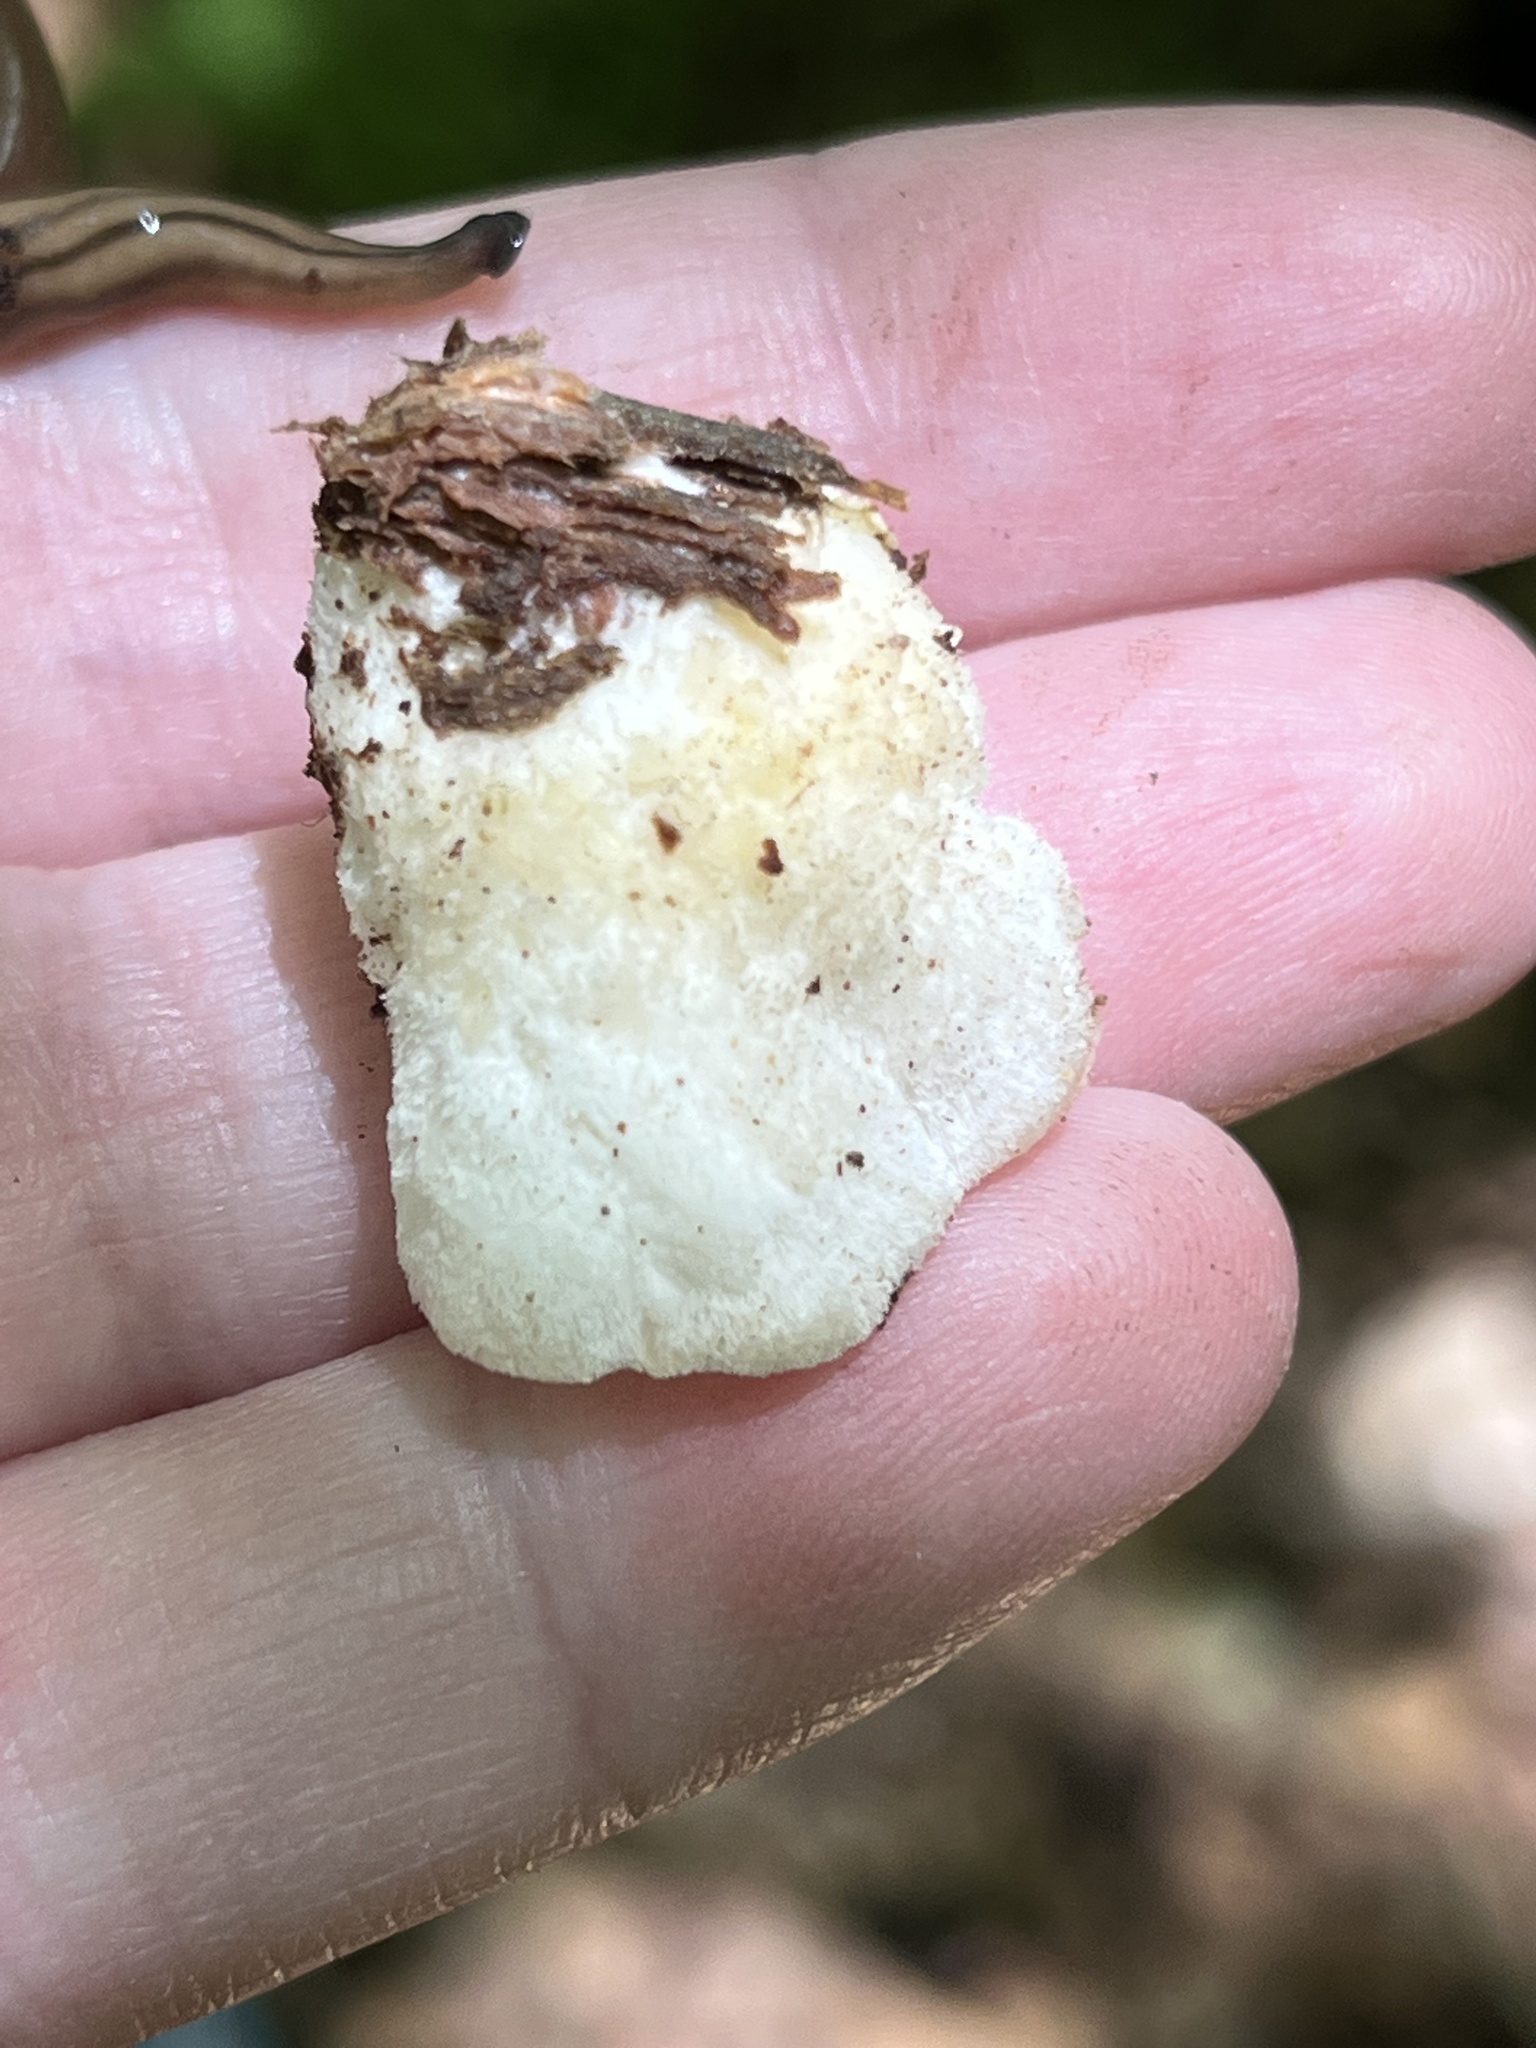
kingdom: Fungi
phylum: Basidiomycota
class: Agaricomycetes
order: Polyporales
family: Incrustoporiaceae
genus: Tyromyces
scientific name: Tyromyces chioneus
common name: White cheese polypore
